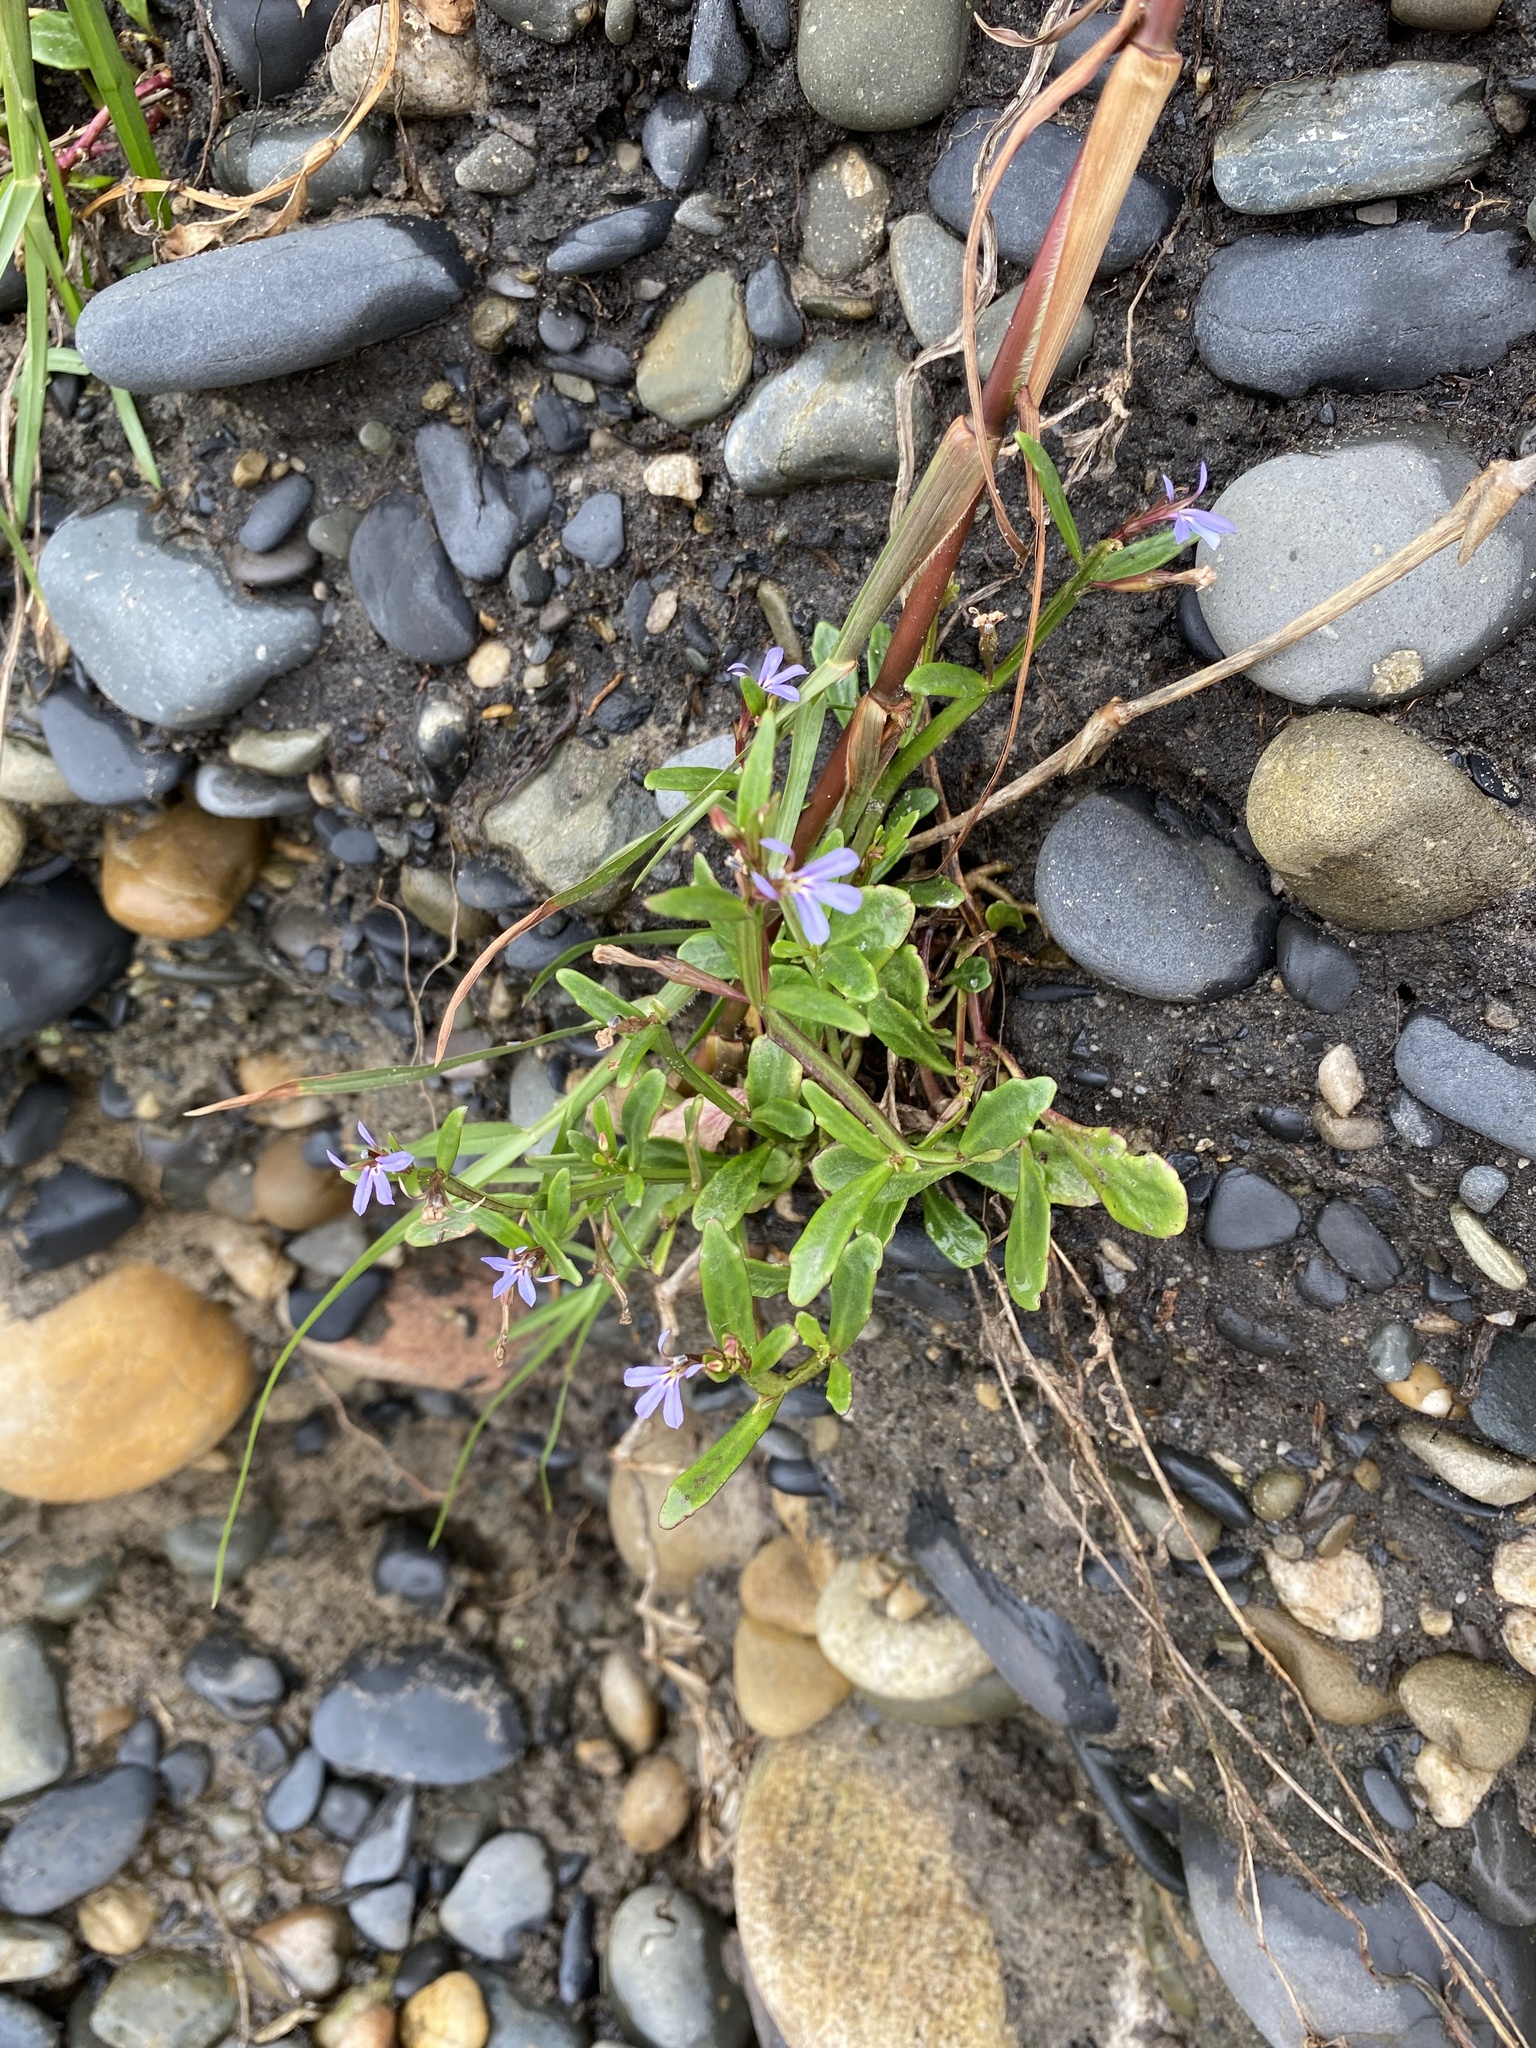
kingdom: Plantae
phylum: Tracheophyta
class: Magnoliopsida
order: Asterales
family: Campanulaceae
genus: Lobelia
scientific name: Lobelia anceps
